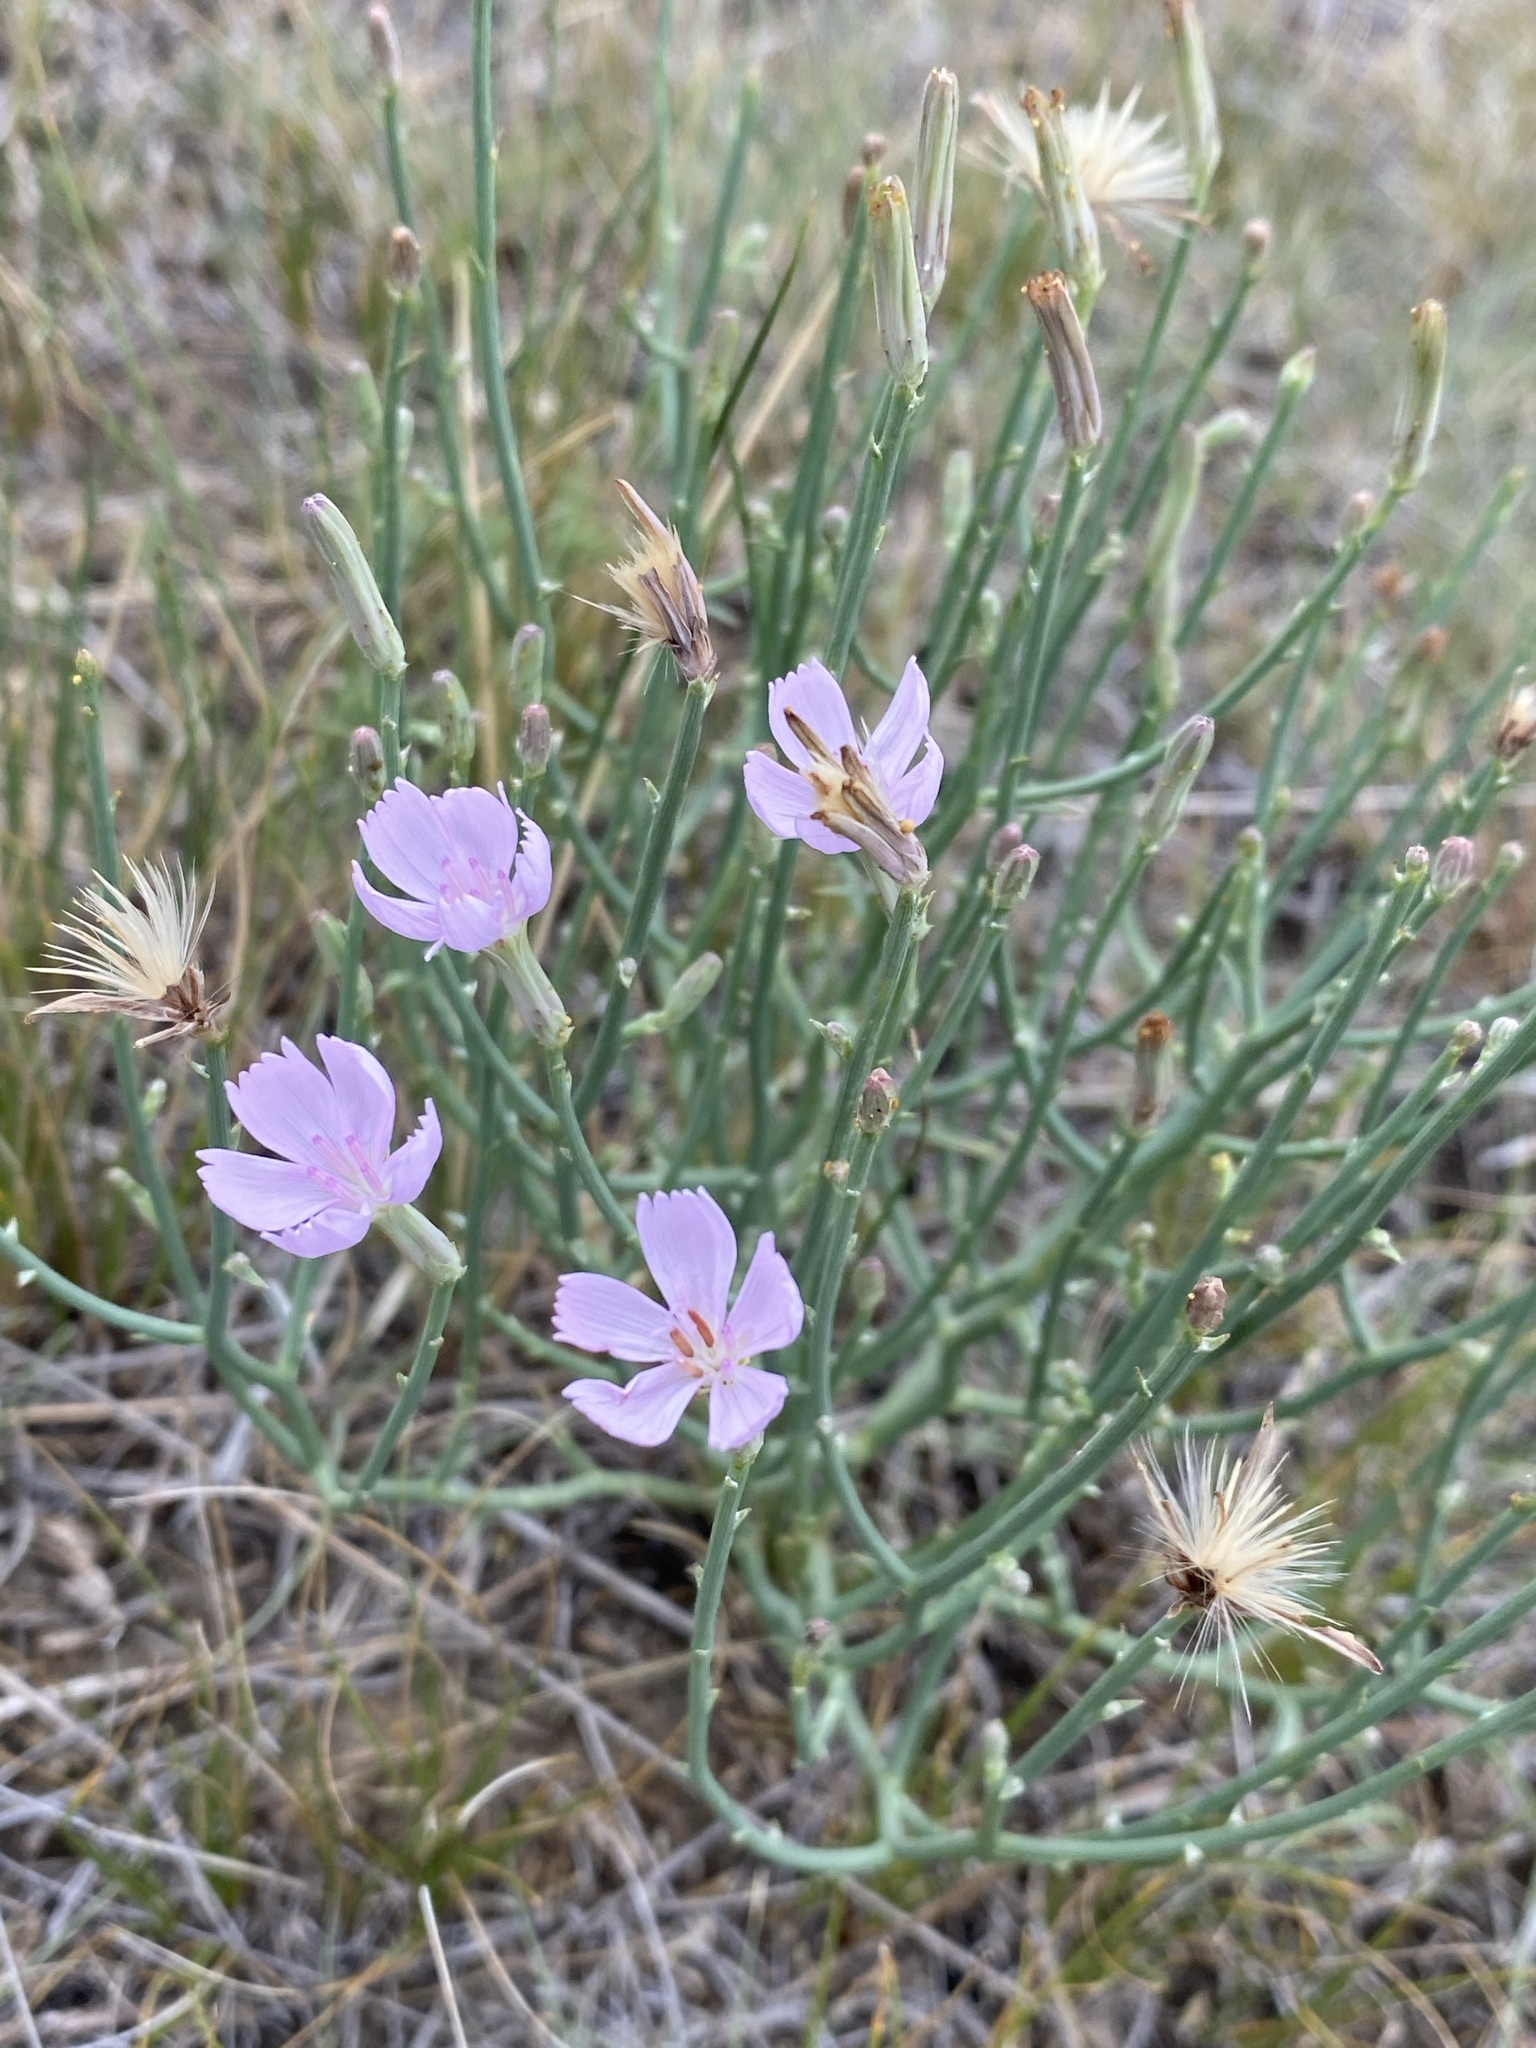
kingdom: Plantae
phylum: Tracheophyta
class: Magnoliopsida
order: Asterales
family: Asteraceae
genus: Lygodesmia
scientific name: Lygodesmia juncea
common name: Common skeletonweed
